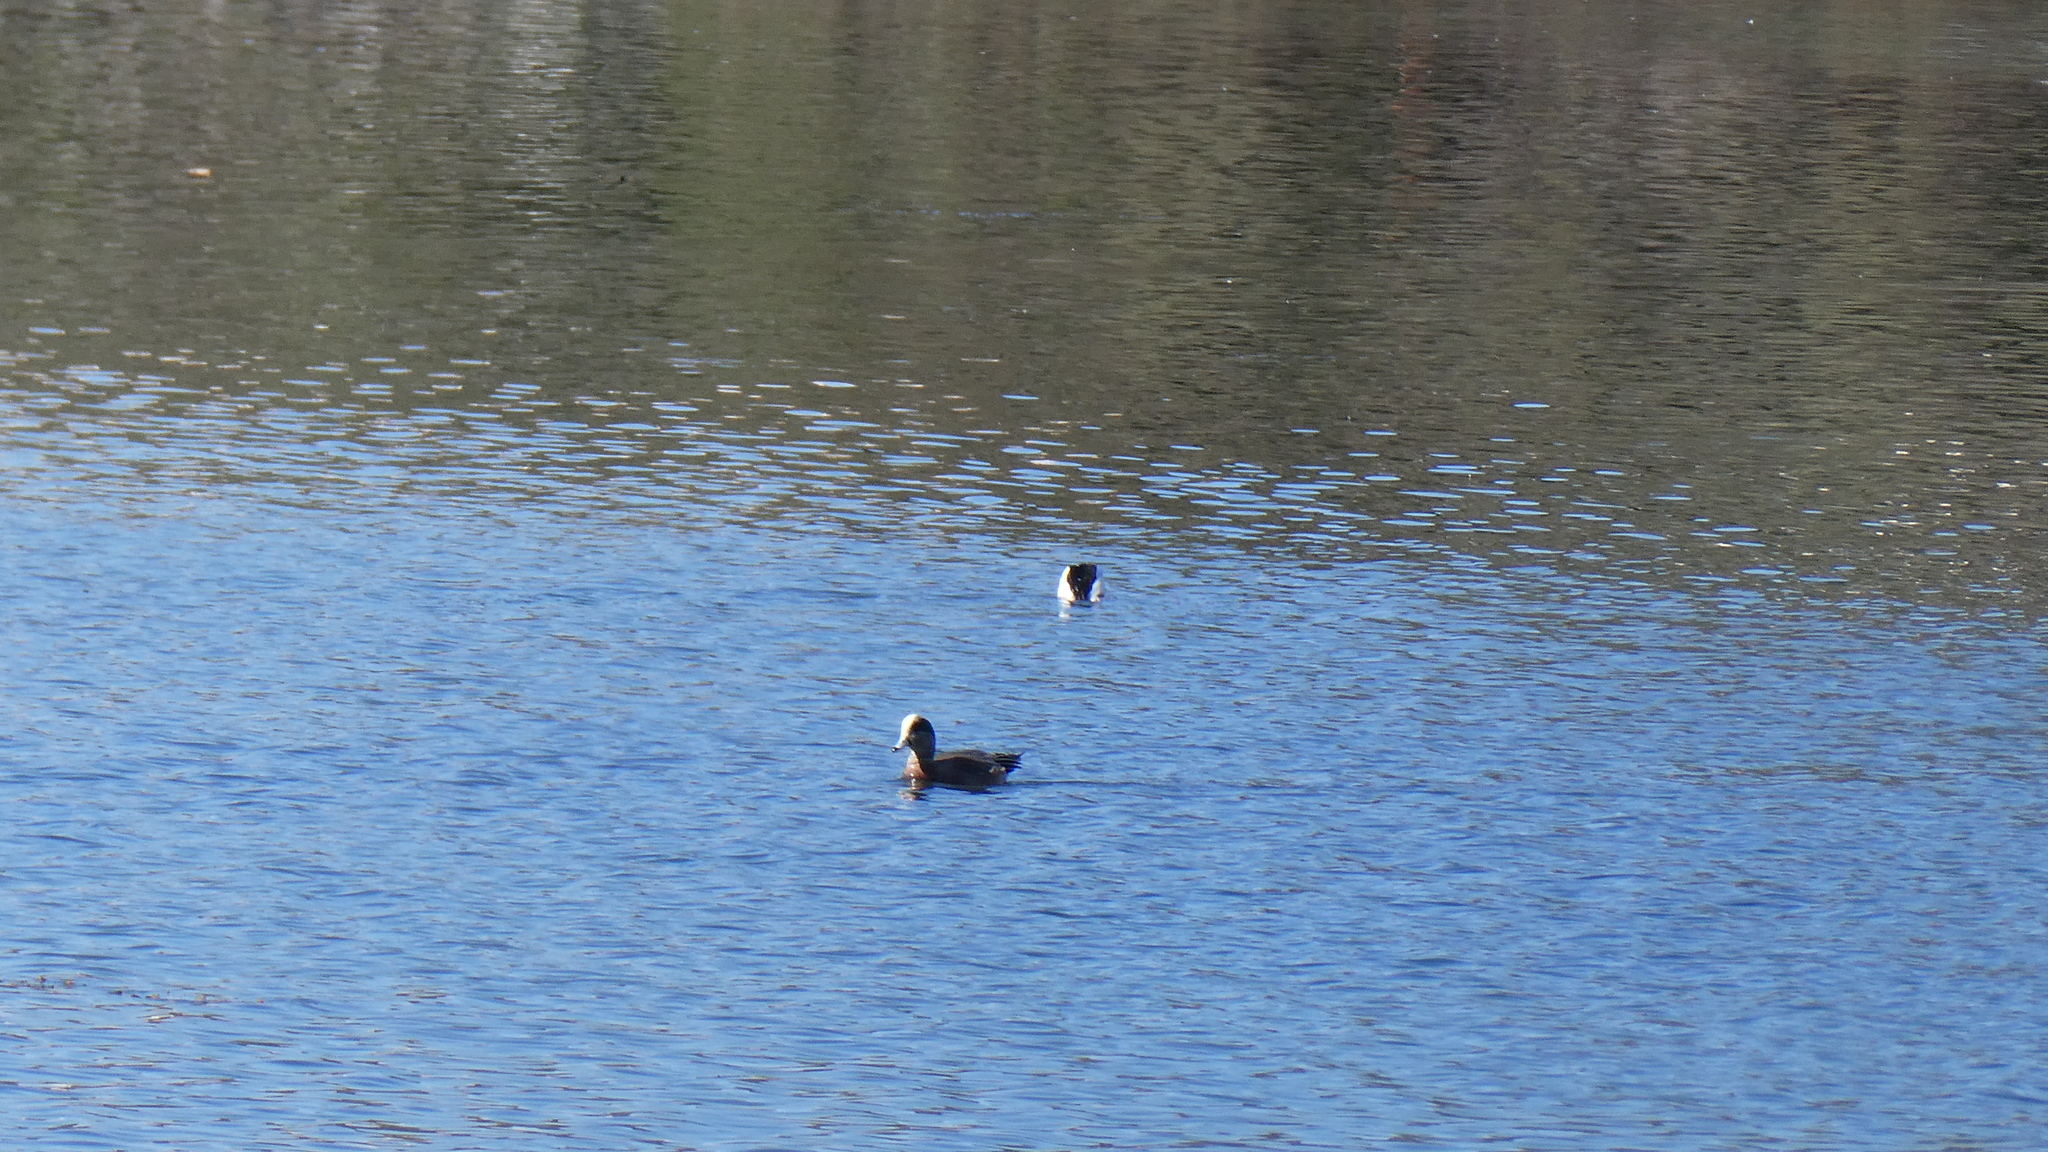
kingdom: Animalia
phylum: Chordata
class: Aves
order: Anseriformes
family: Anatidae
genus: Mareca
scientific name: Mareca americana
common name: American wigeon
